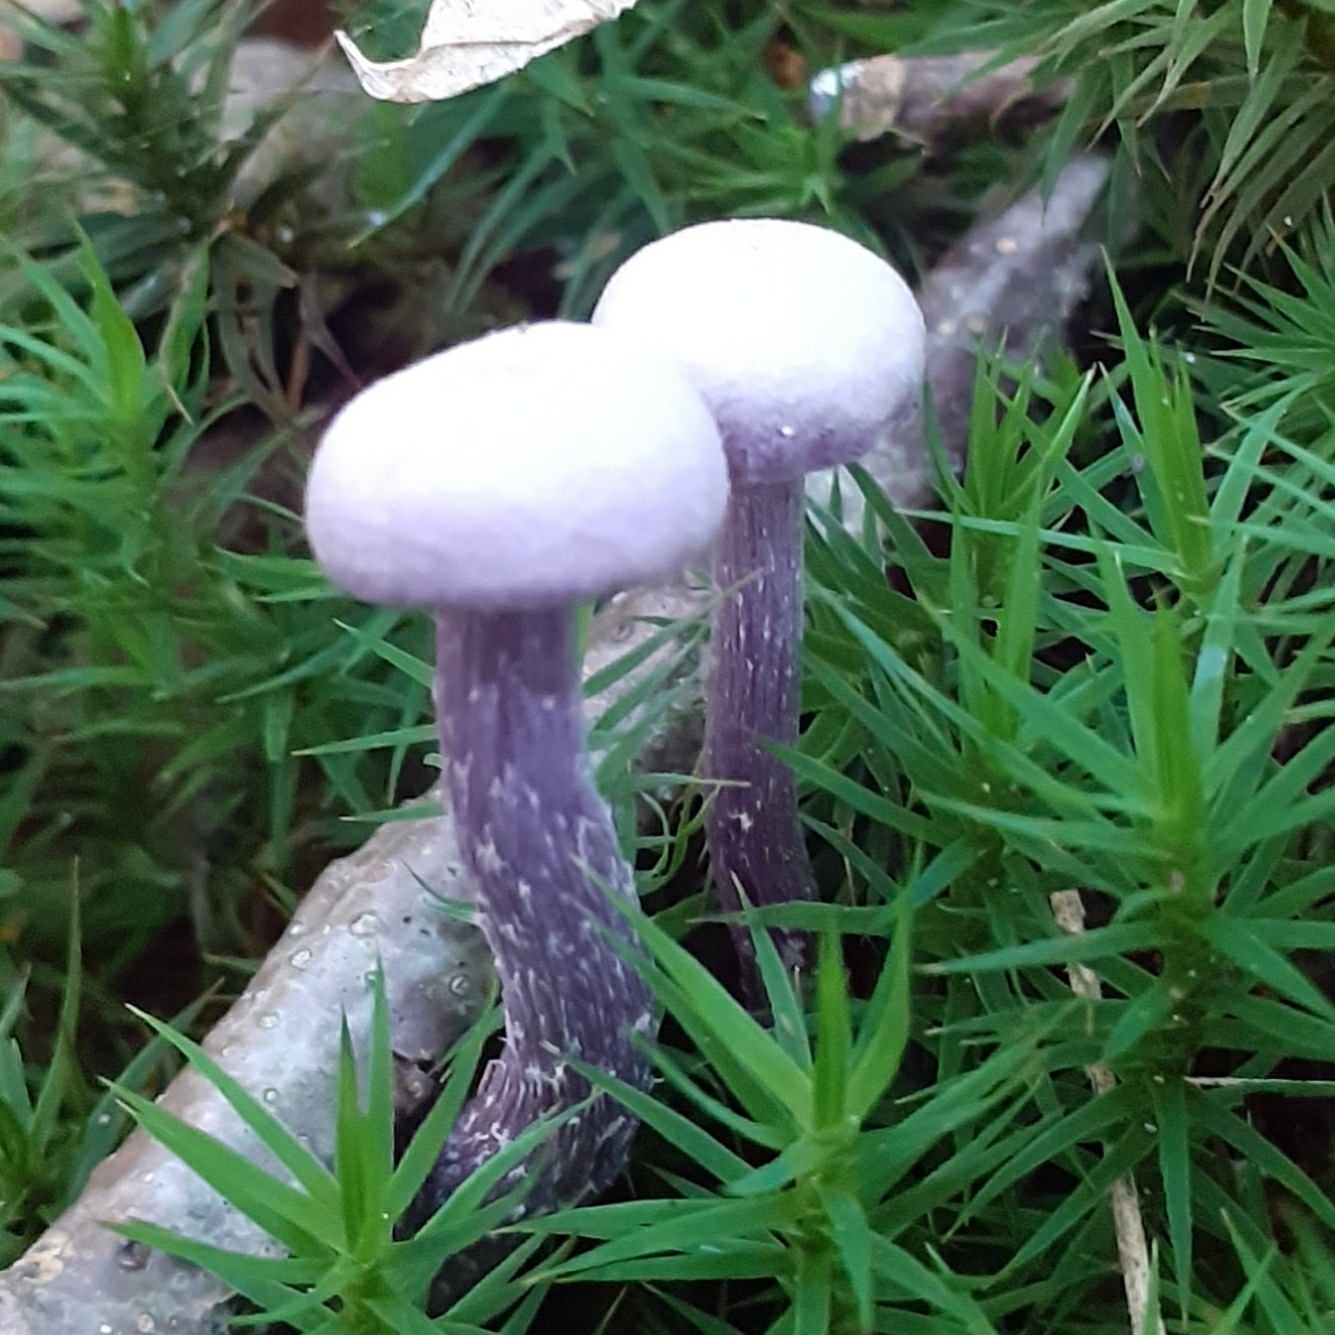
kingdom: Fungi
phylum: Basidiomycota
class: Agaricomycetes
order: Agaricales
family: Hydnangiaceae
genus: Laccaria
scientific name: Laccaria amethystina
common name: Amethyst deceiver
